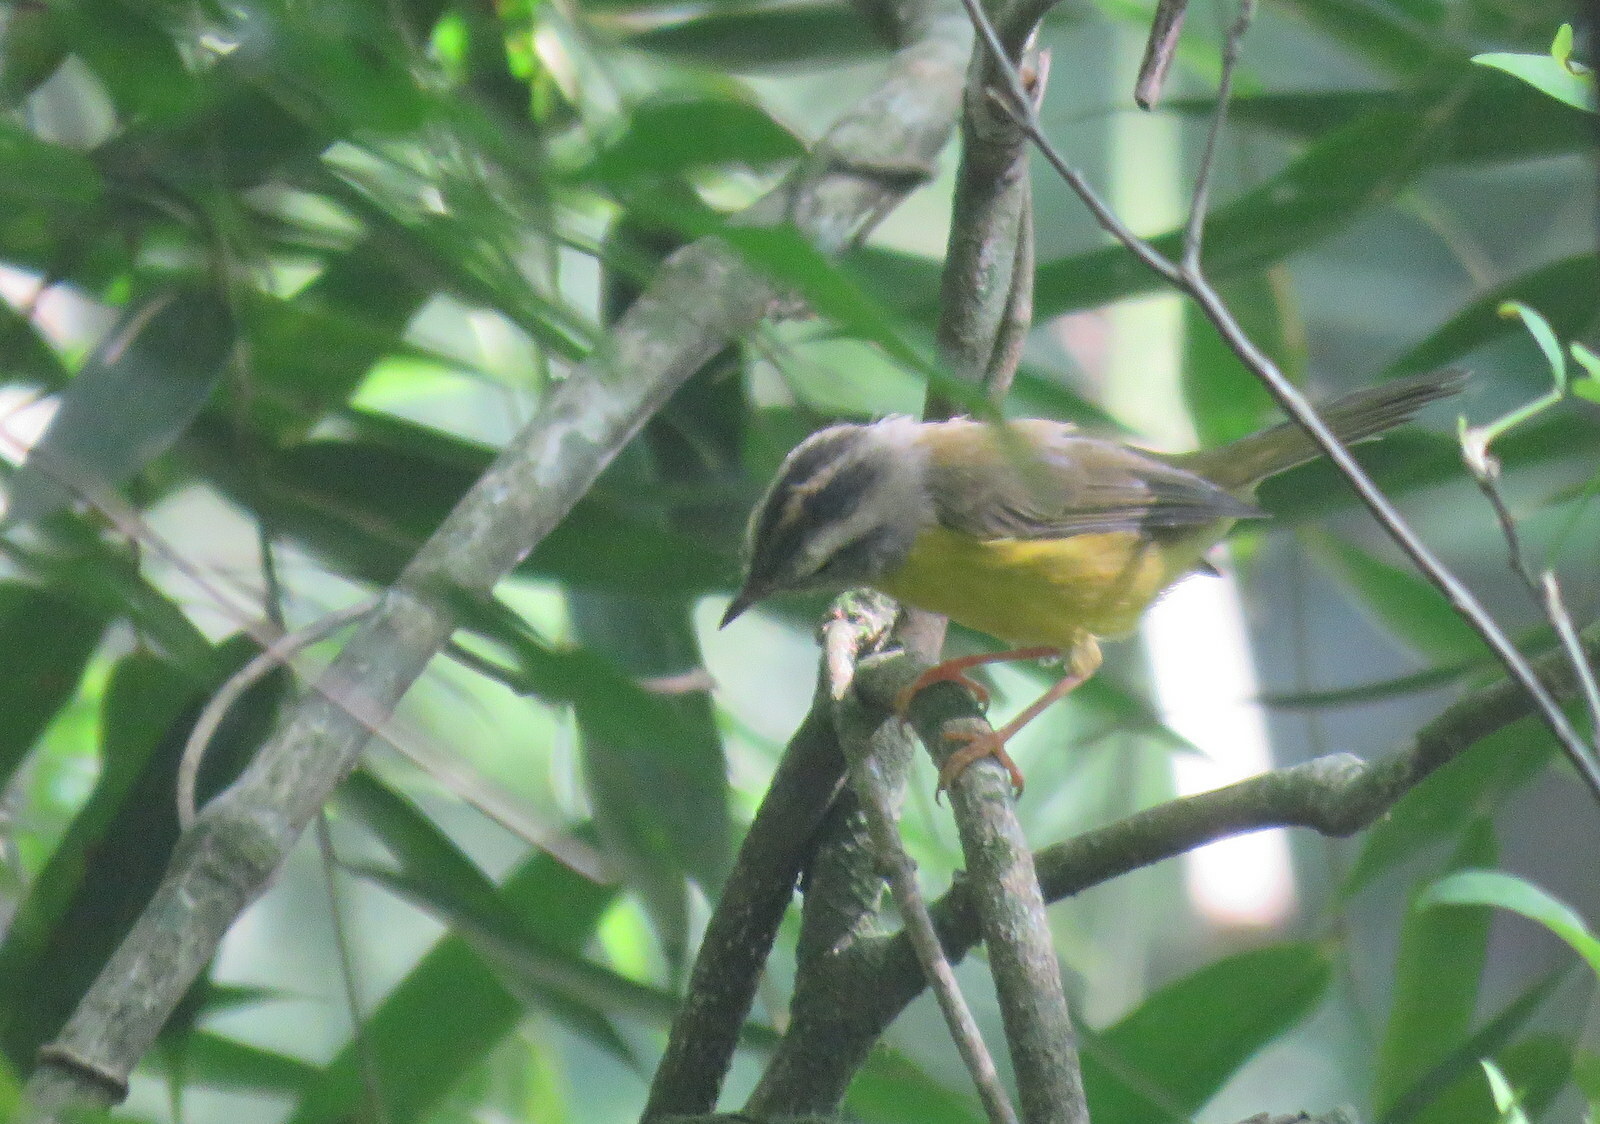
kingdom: Animalia
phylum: Chordata
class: Aves
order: Passeriformes
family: Parulidae
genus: Basileuterus
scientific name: Basileuterus culicivorus
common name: Golden-crowned warbler
